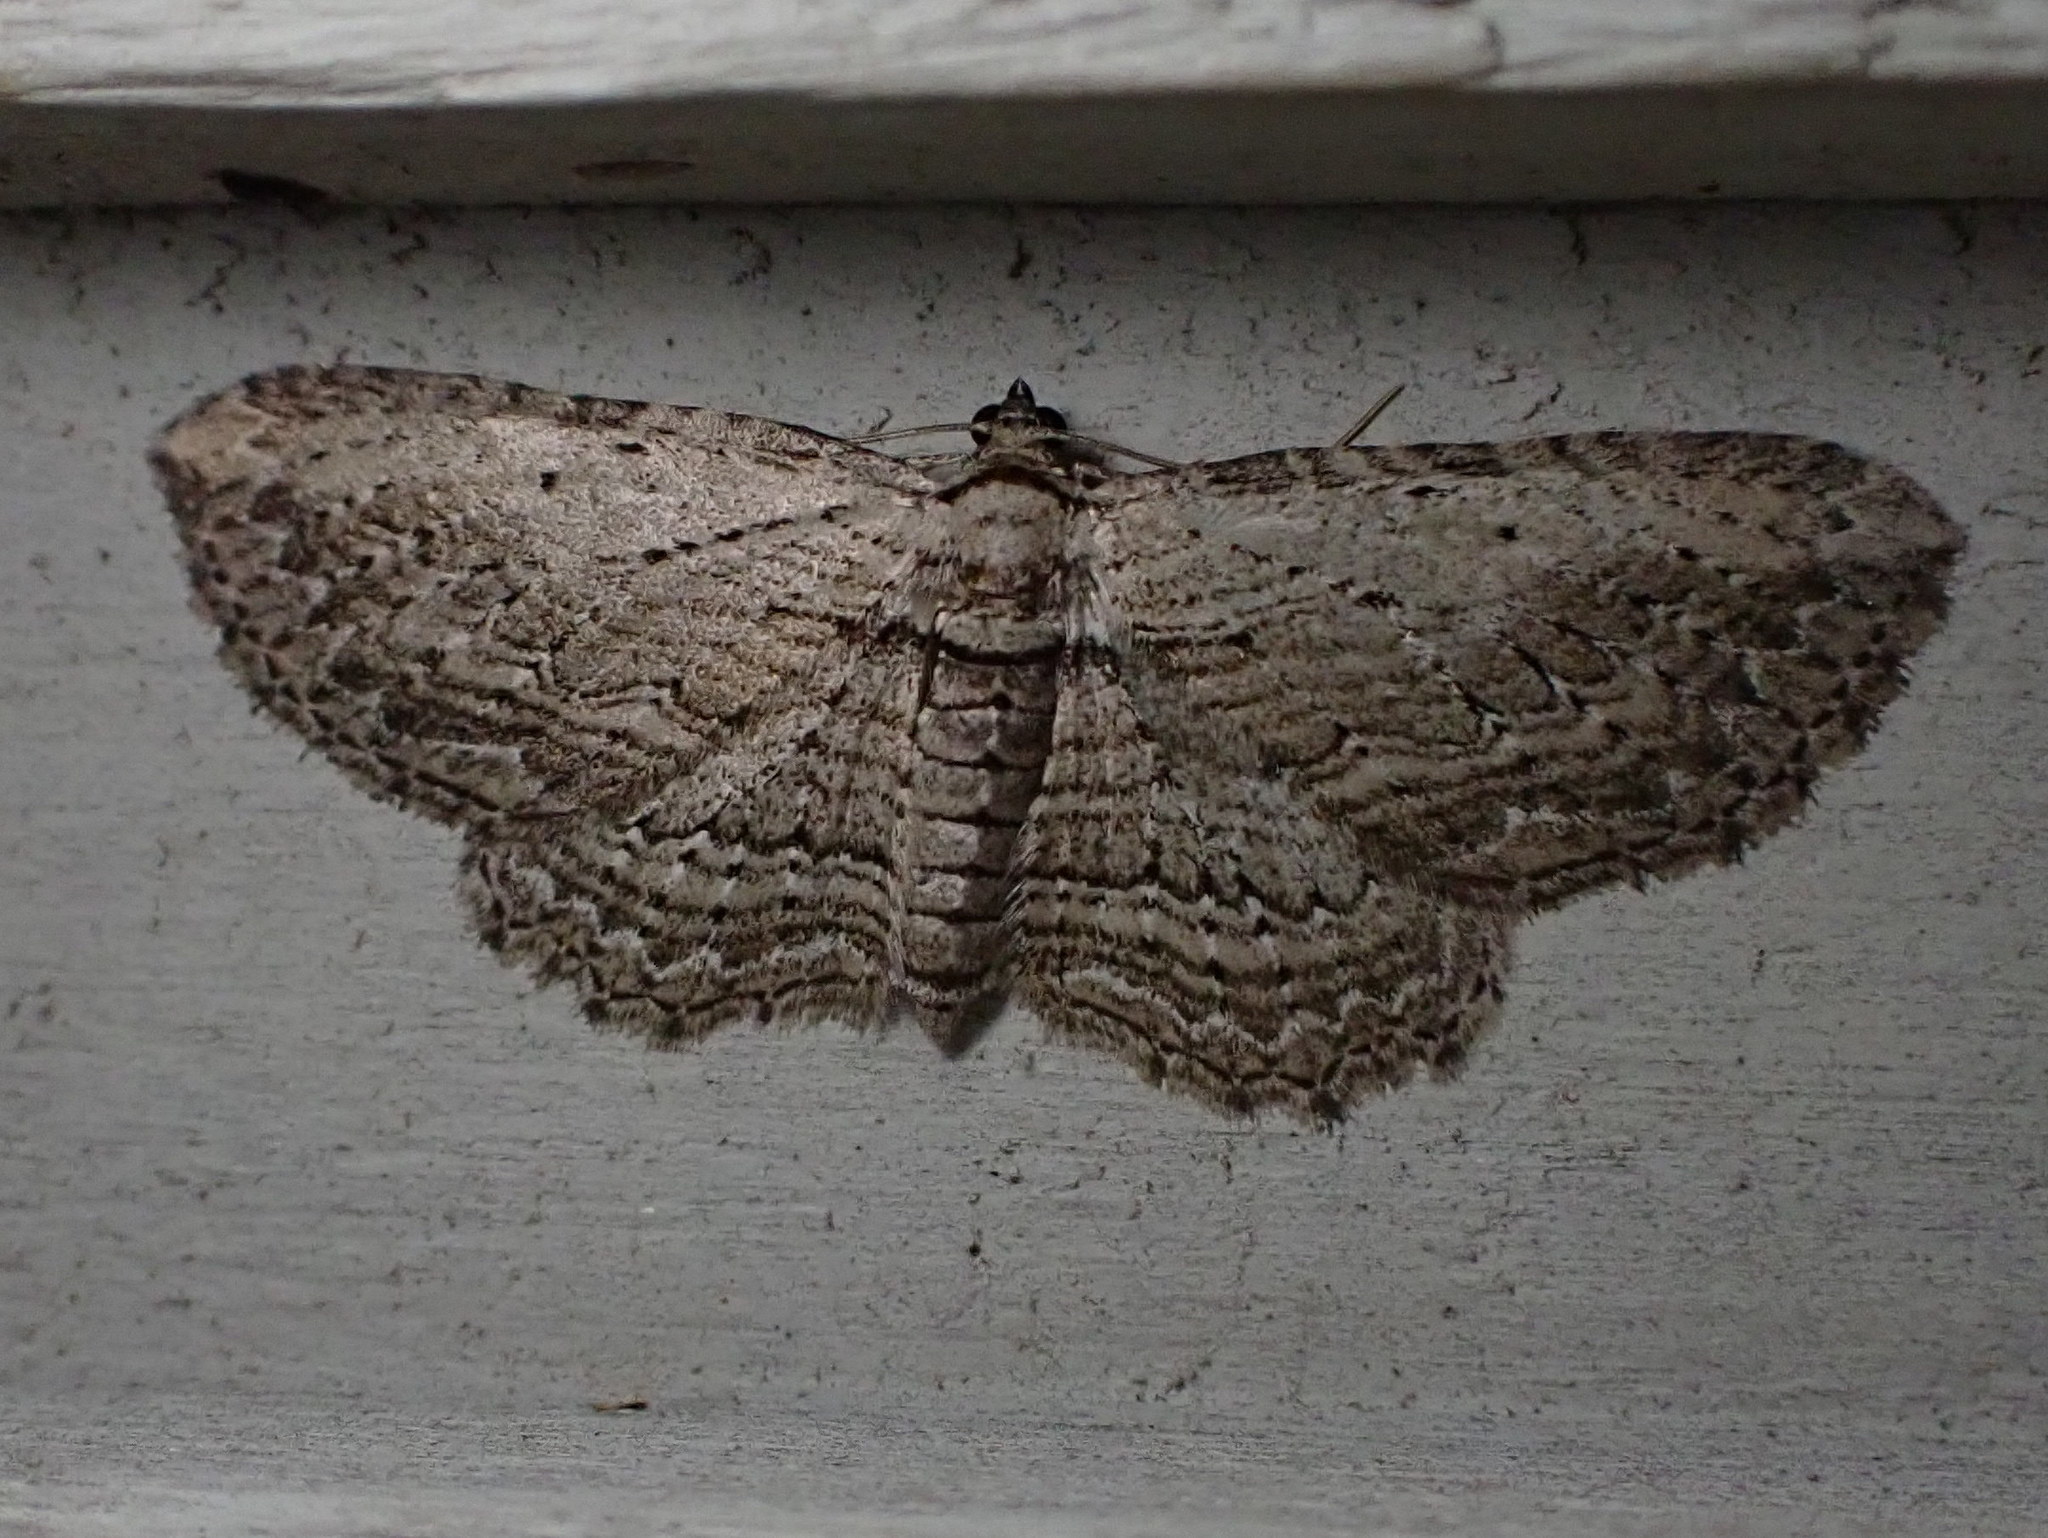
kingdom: Animalia
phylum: Arthropoda
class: Insecta
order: Lepidoptera
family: Geometridae
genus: Horisme
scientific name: Horisme intestinata
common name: Brown bark carpet
